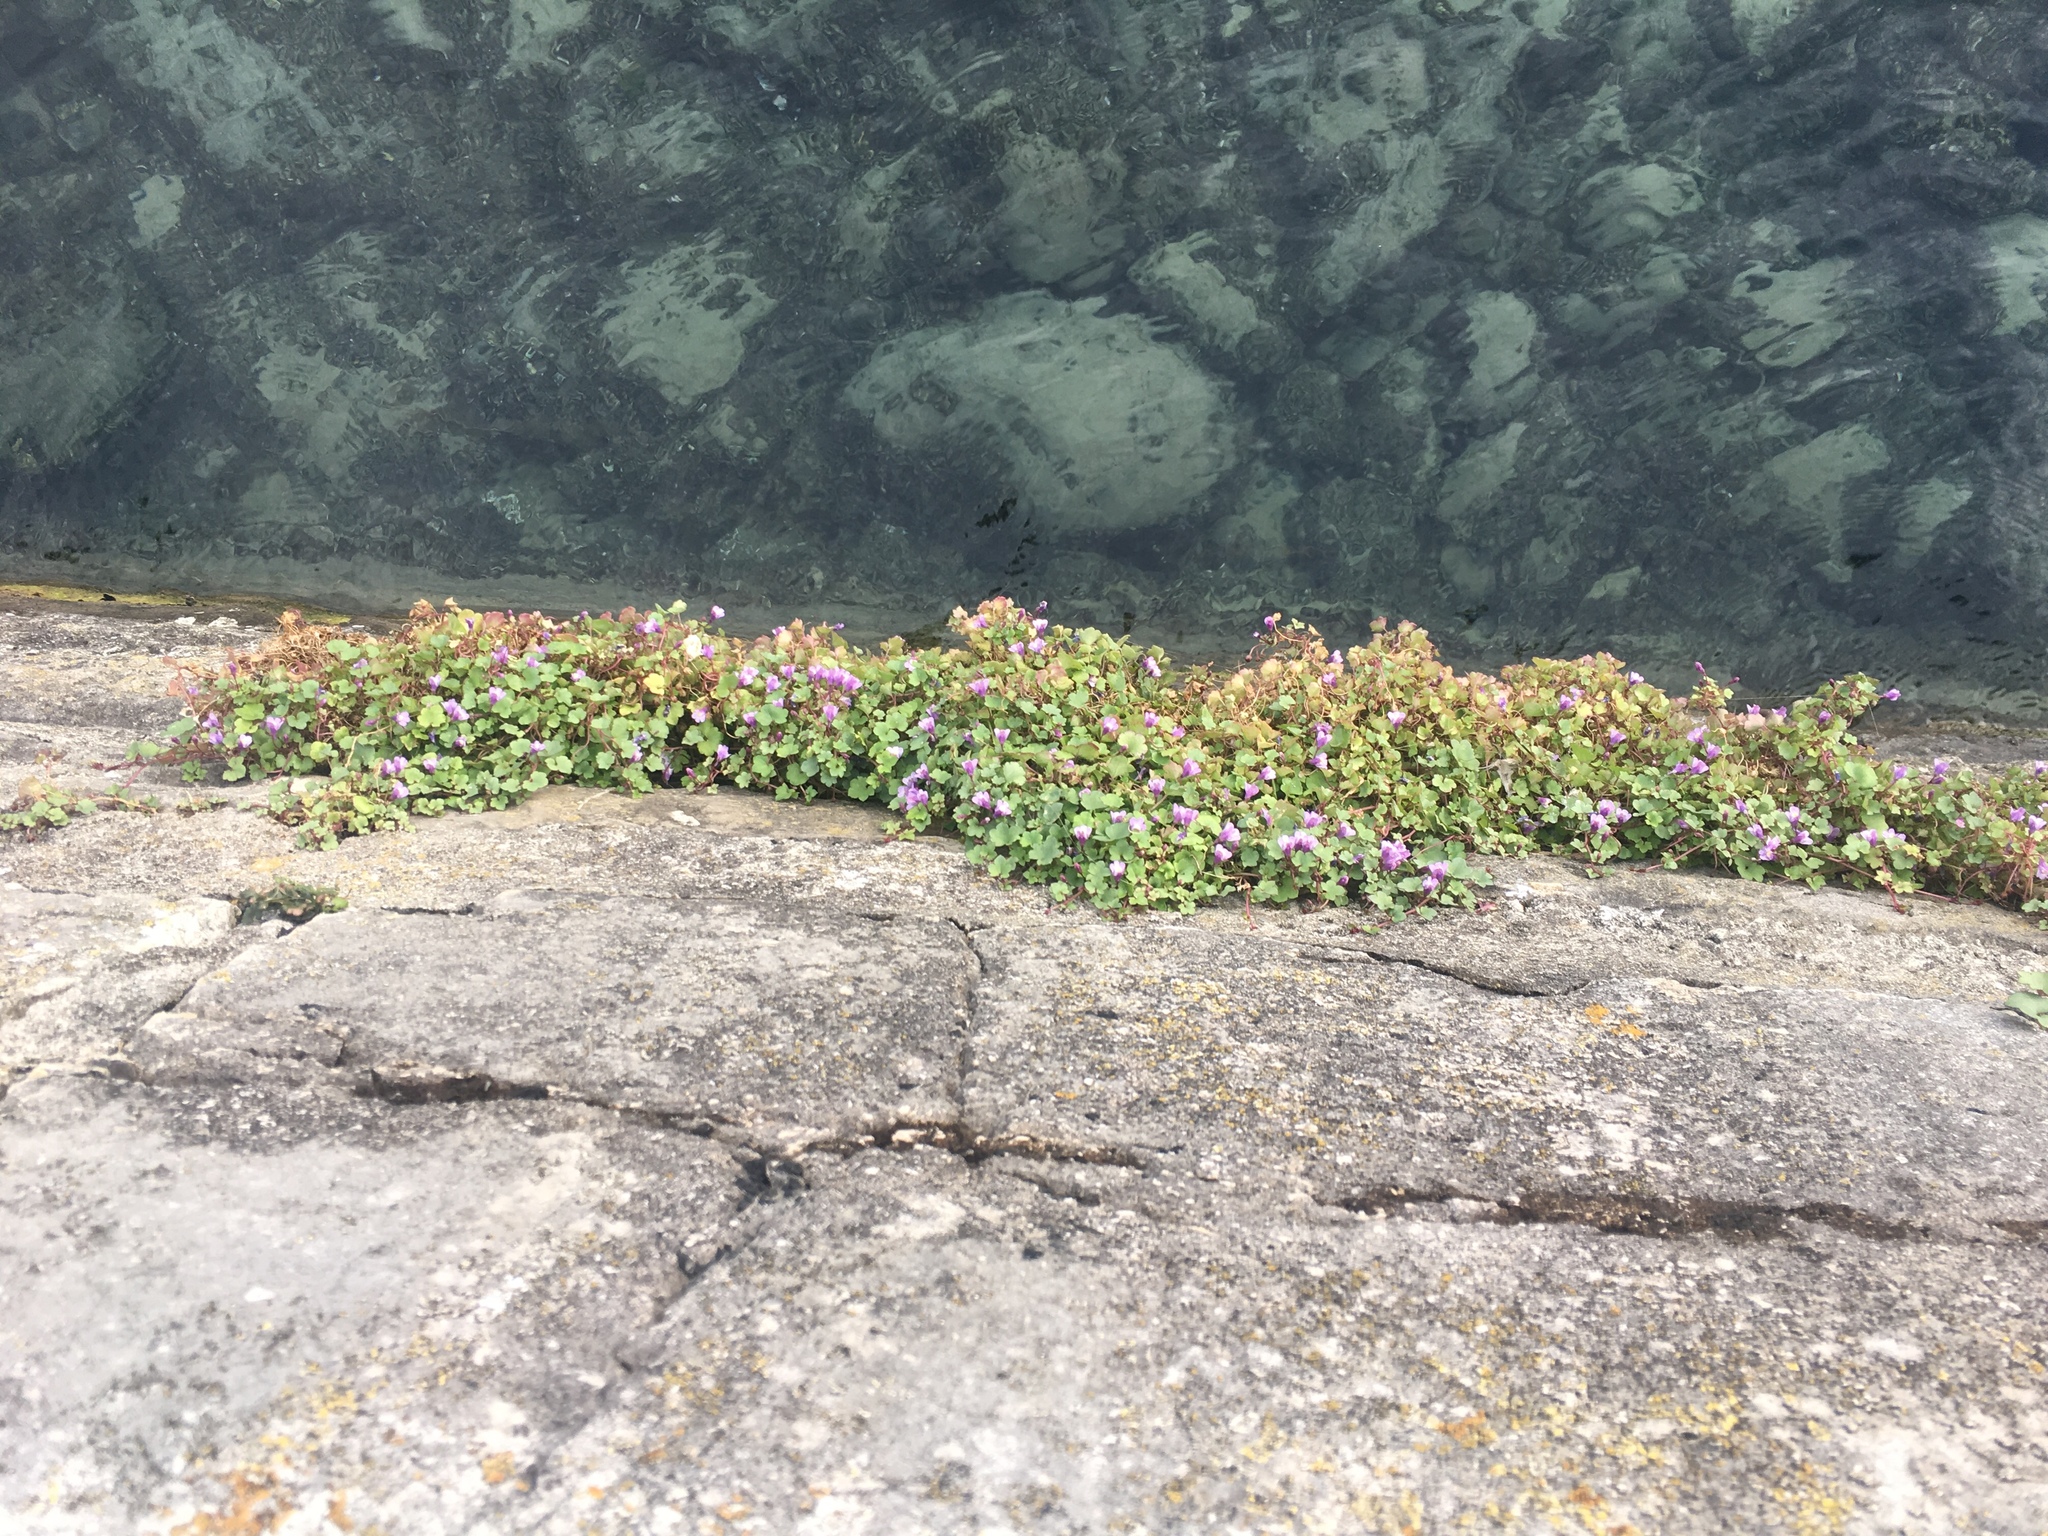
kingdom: Plantae
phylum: Tracheophyta
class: Magnoliopsida
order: Lamiales
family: Plantaginaceae
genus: Cymbalaria
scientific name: Cymbalaria muralis
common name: Ivy-leaved toadflax
